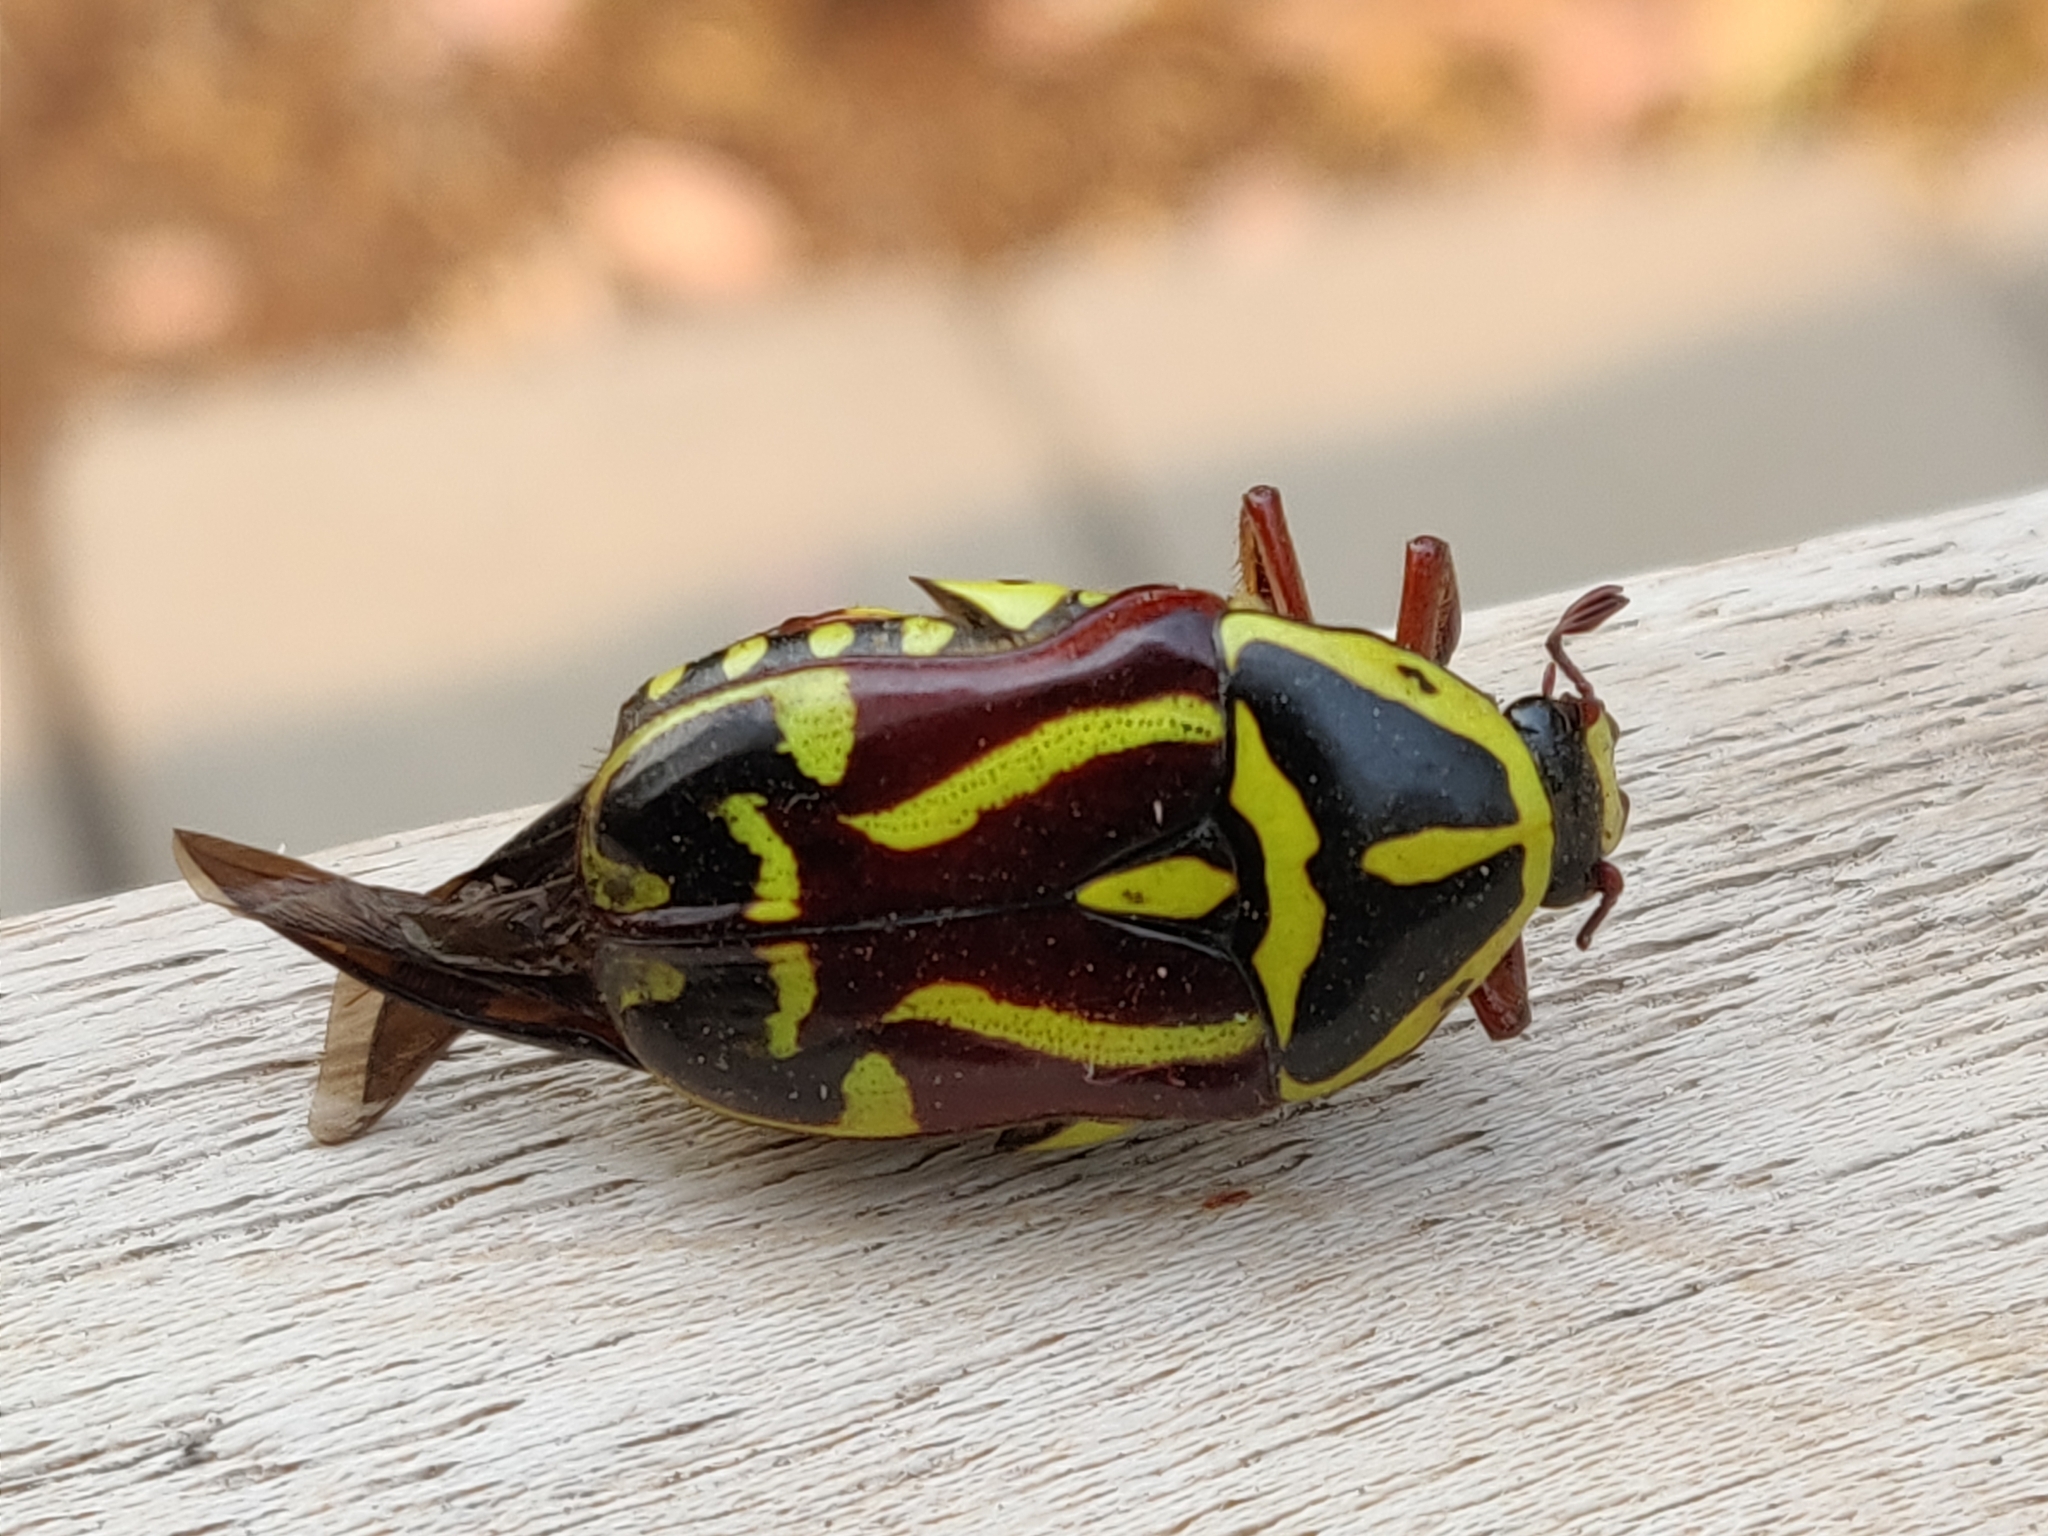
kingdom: Animalia
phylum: Arthropoda
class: Insecta
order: Coleoptera
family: Scarabaeidae
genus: Eupoecila
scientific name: Eupoecila australasiae
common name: Fiddler beetle
